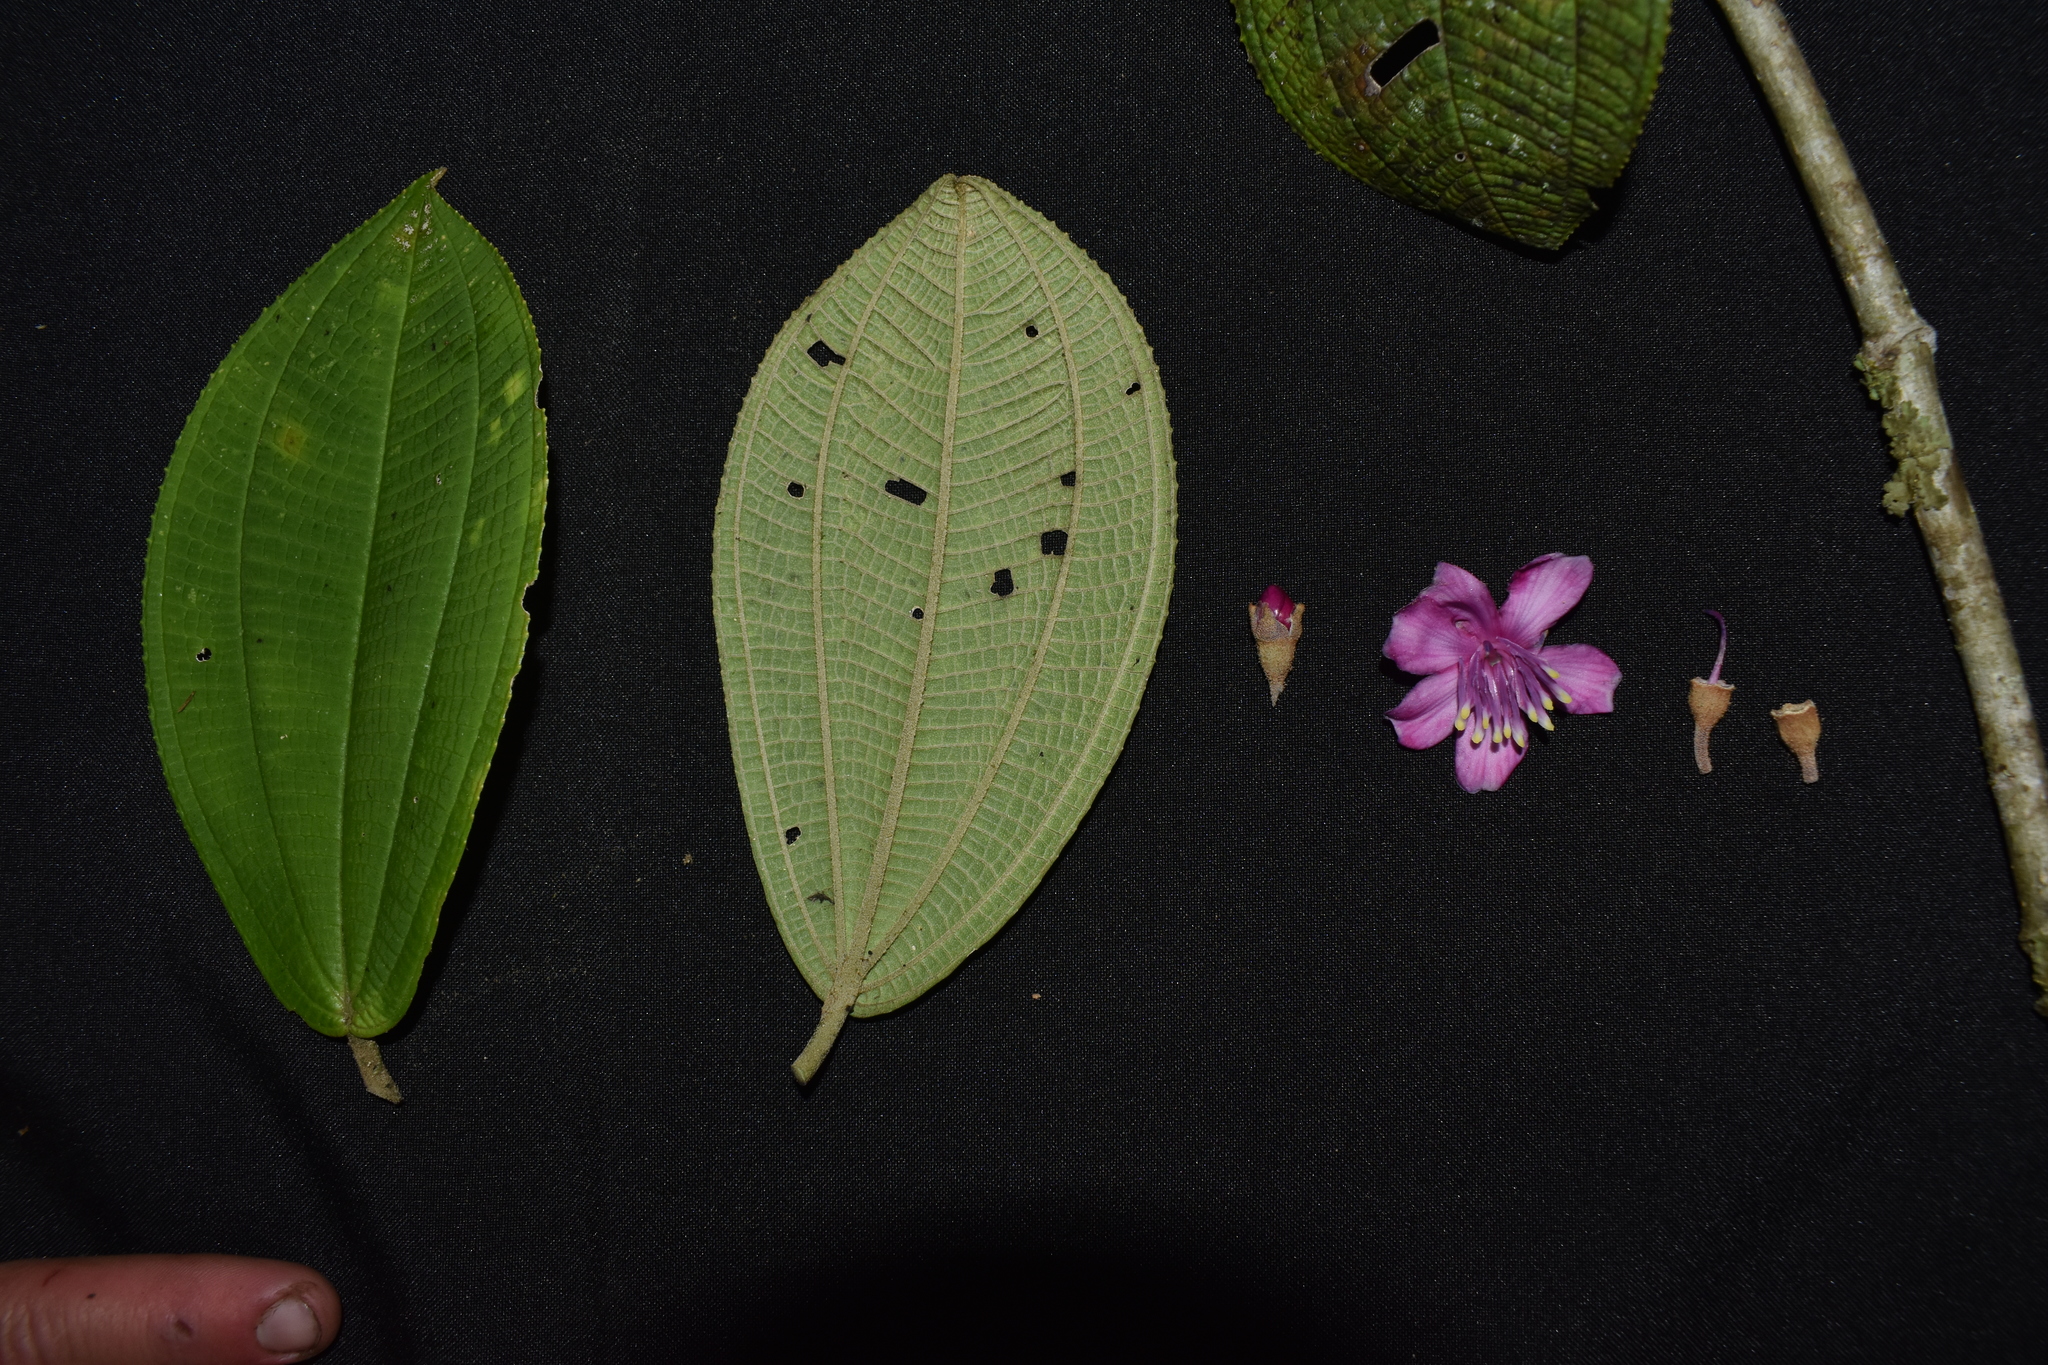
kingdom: Plantae
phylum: Tracheophyta
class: Magnoliopsida
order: Myrtales
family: Melastomataceae
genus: Meriania
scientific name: Meriania weberbaueri
